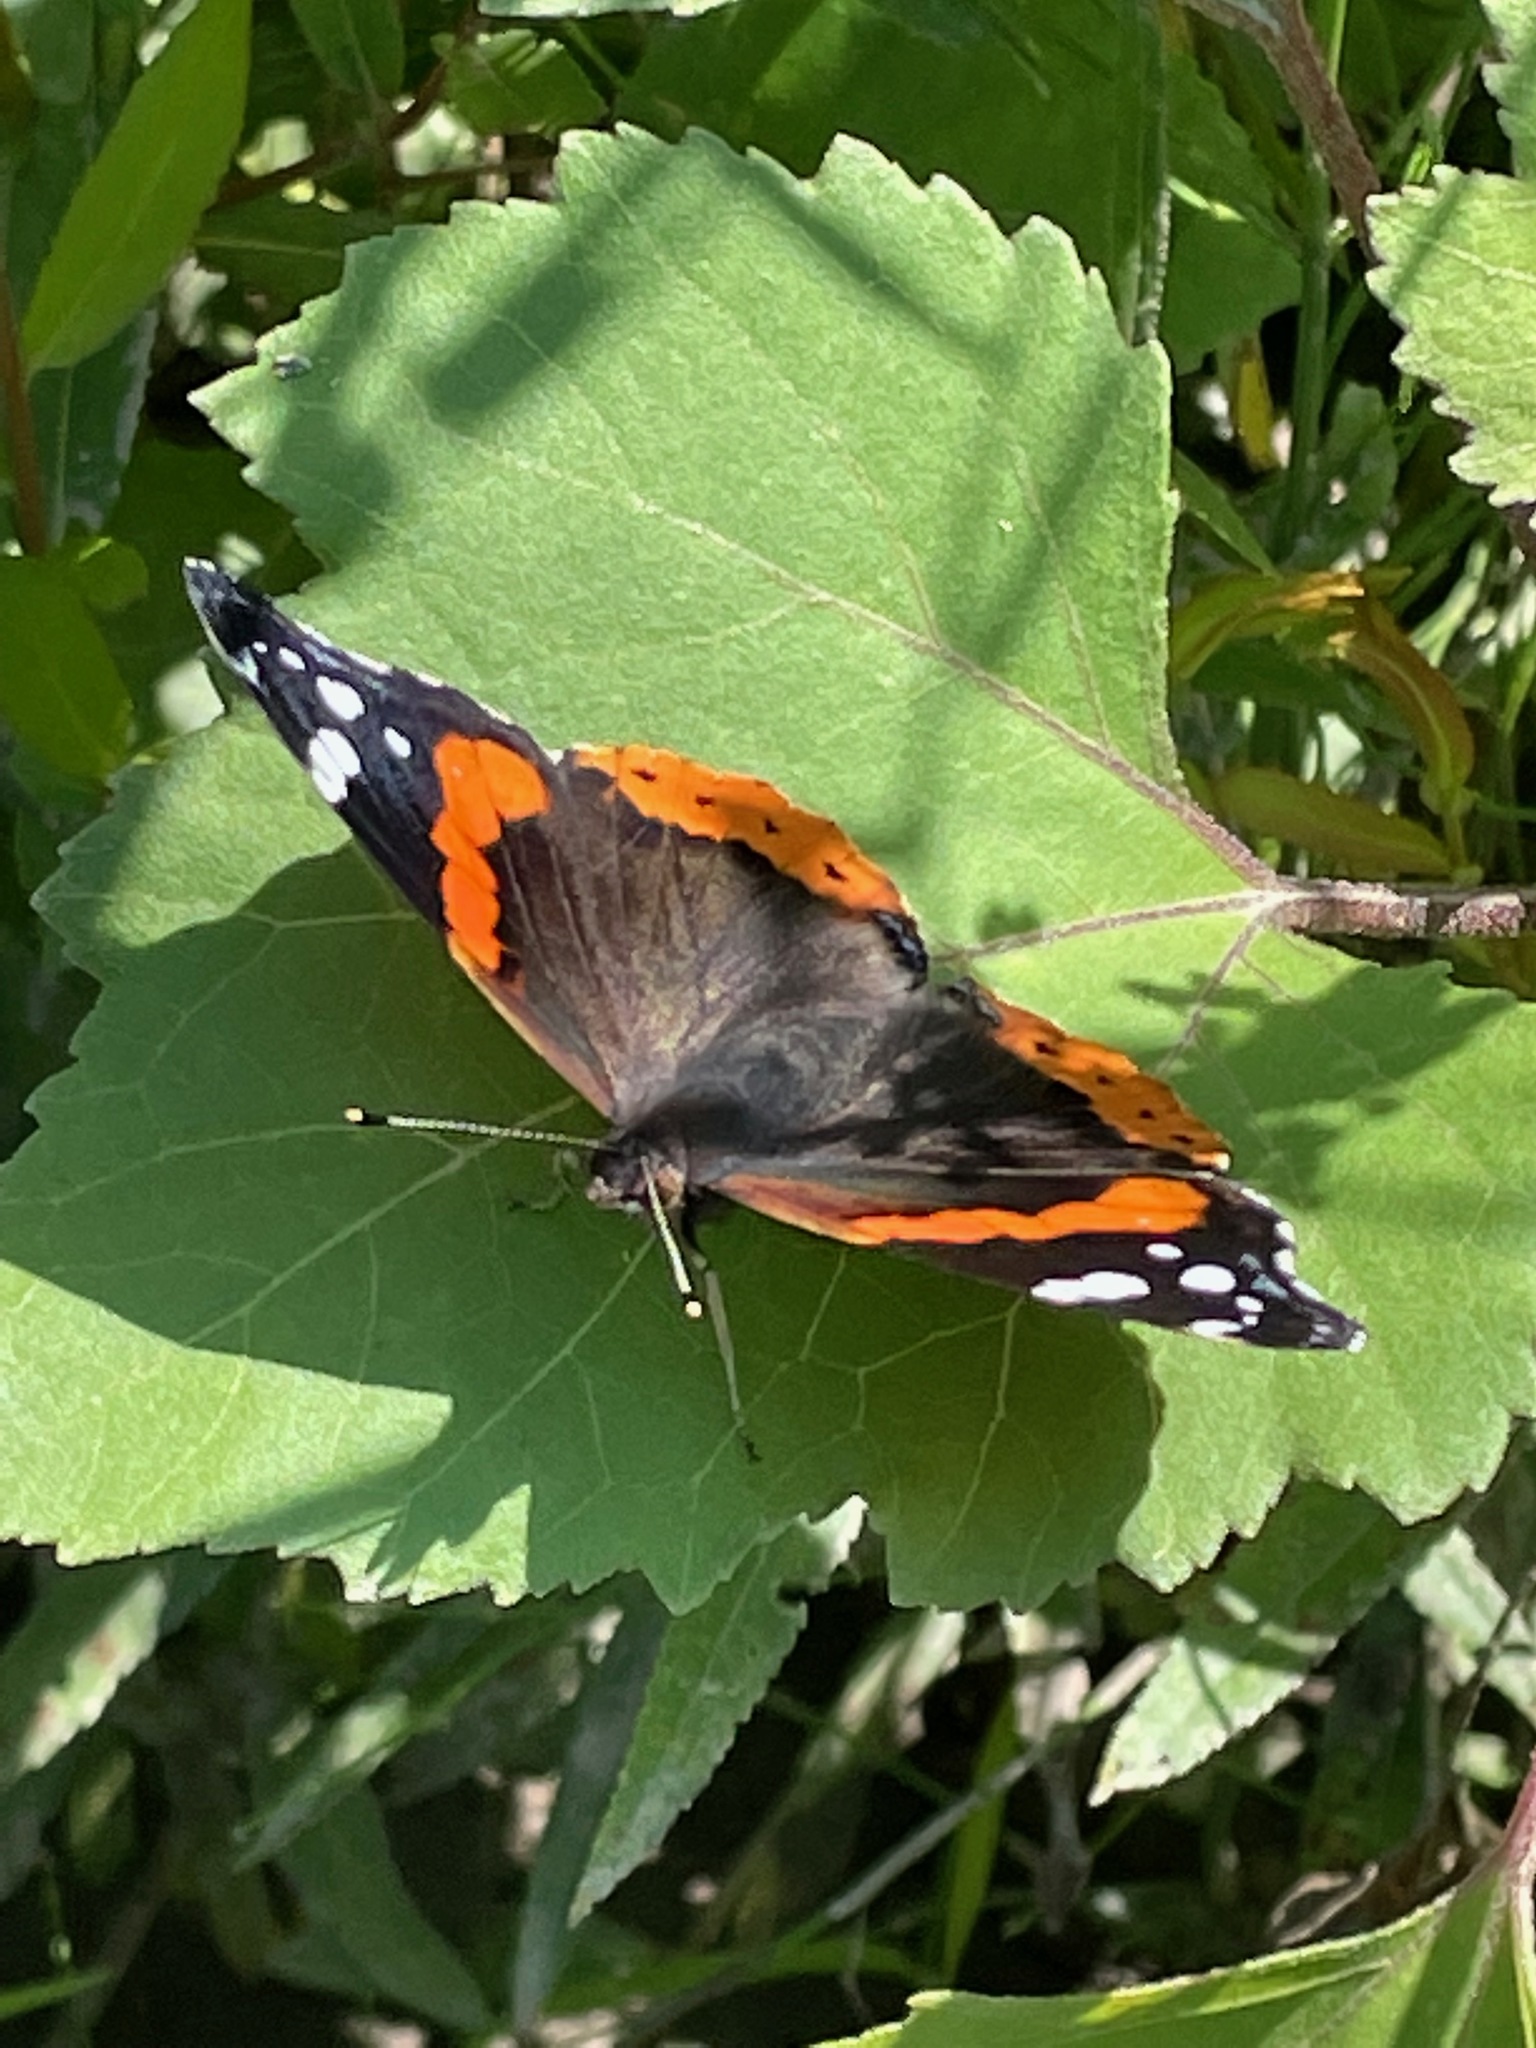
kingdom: Animalia
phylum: Arthropoda
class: Insecta
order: Lepidoptera
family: Nymphalidae
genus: Vanessa
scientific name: Vanessa atalanta
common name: Red admiral
